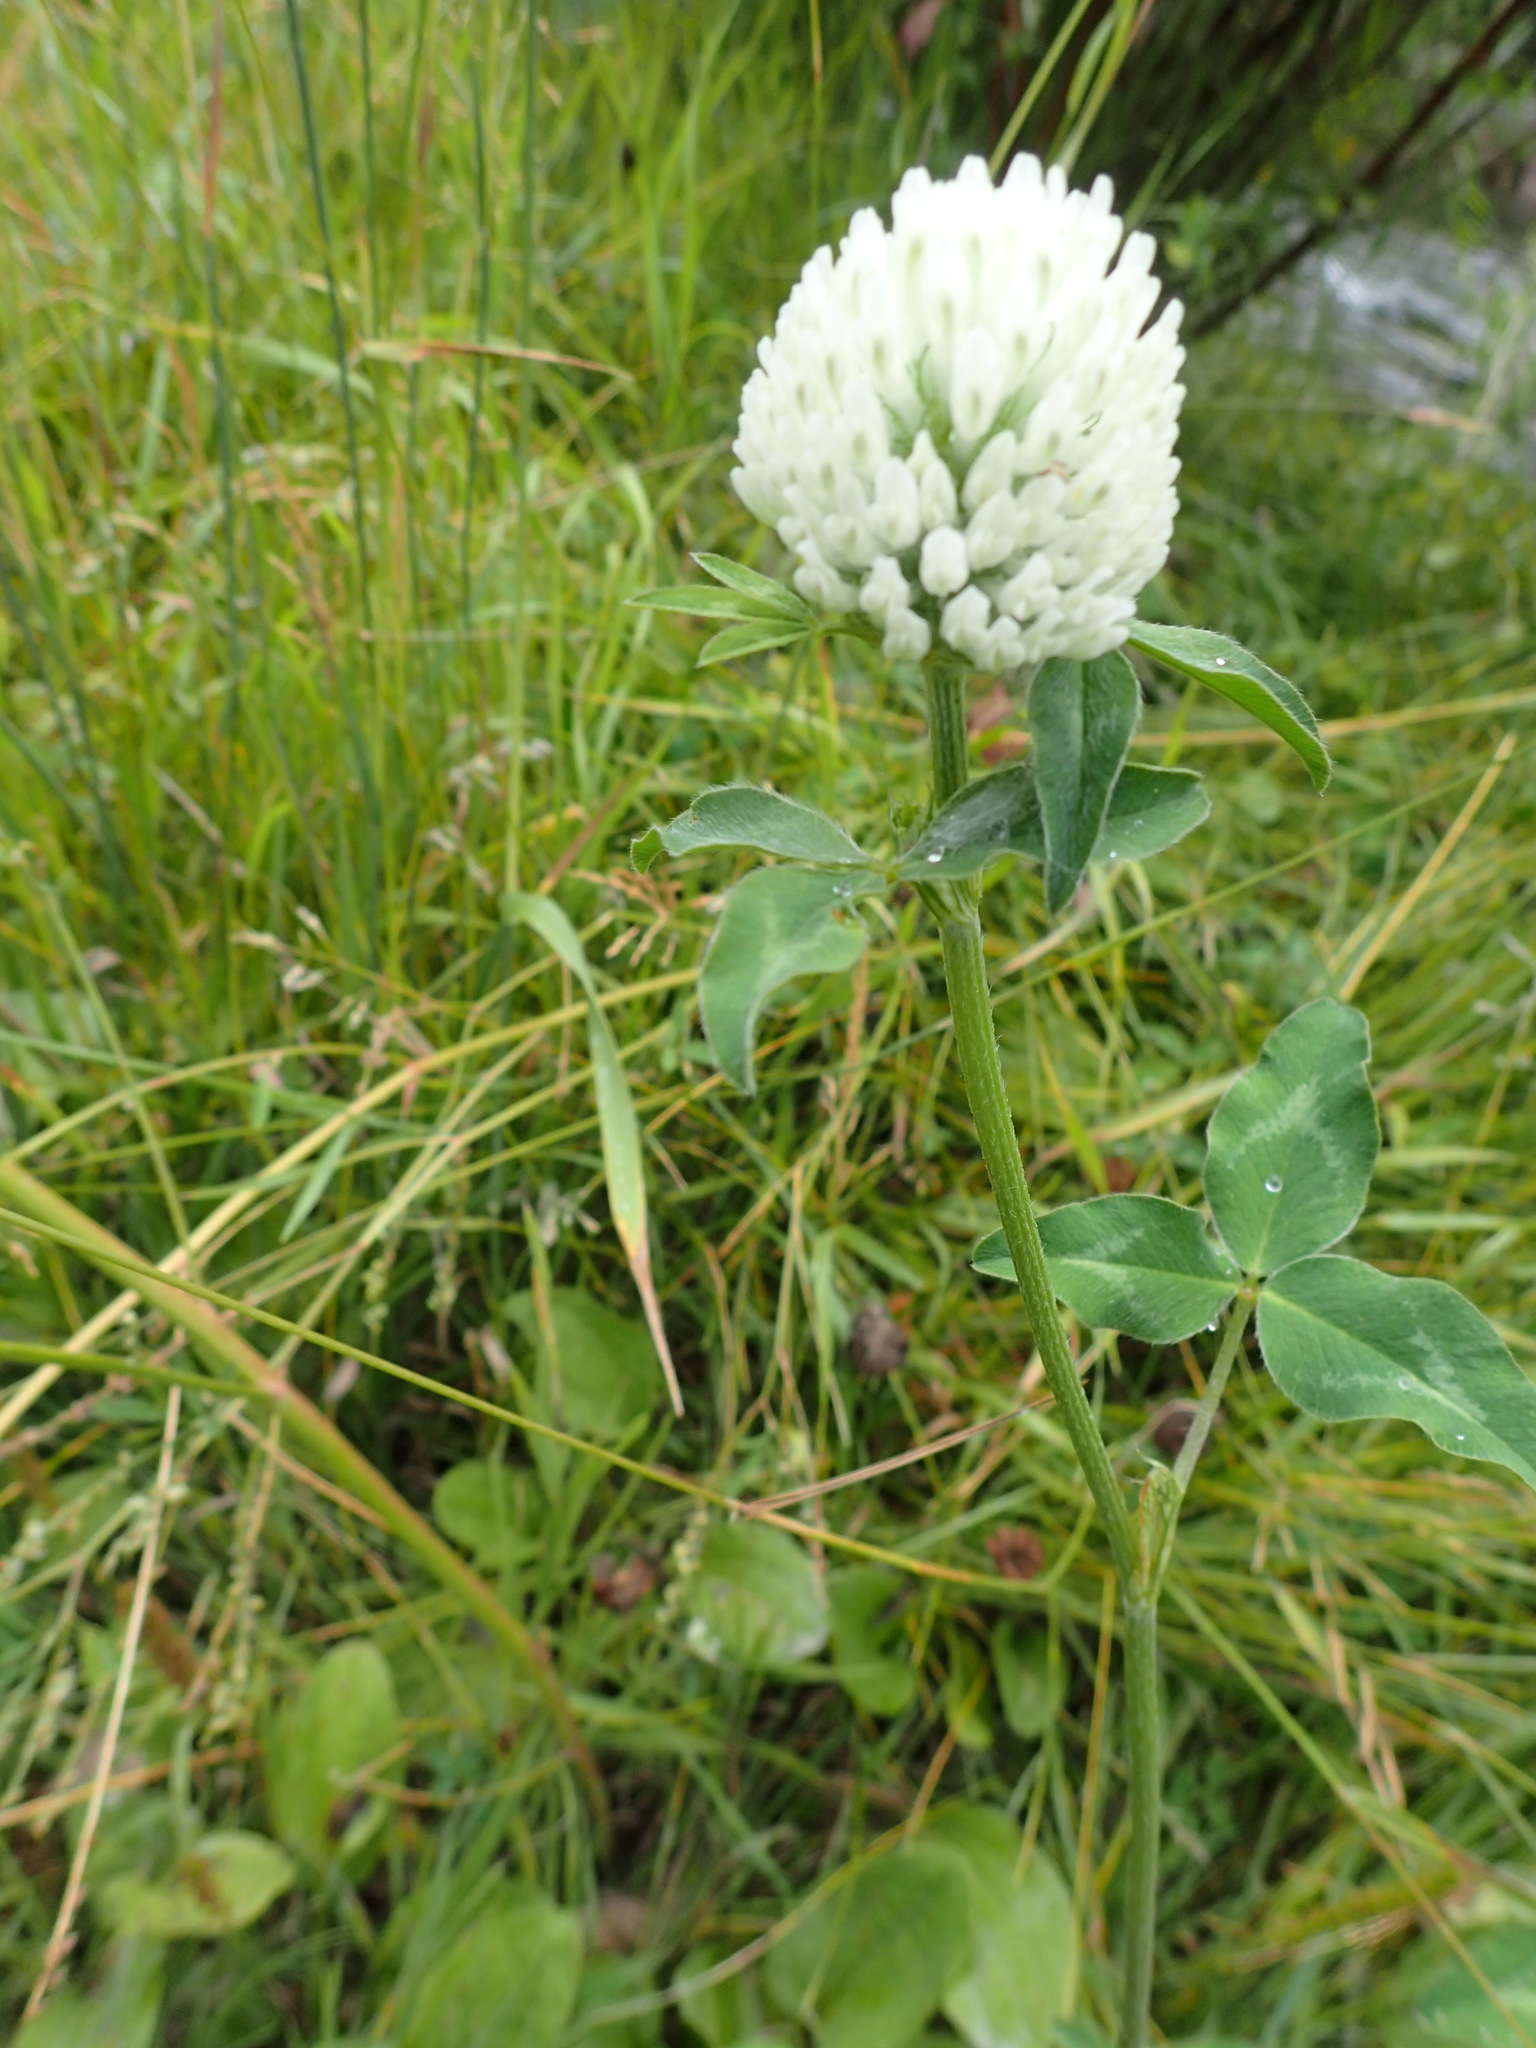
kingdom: Plantae
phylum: Tracheophyta
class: Magnoliopsida
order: Fabales
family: Fabaceae
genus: Trifolium
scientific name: Trifolium pratense
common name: Red clover
